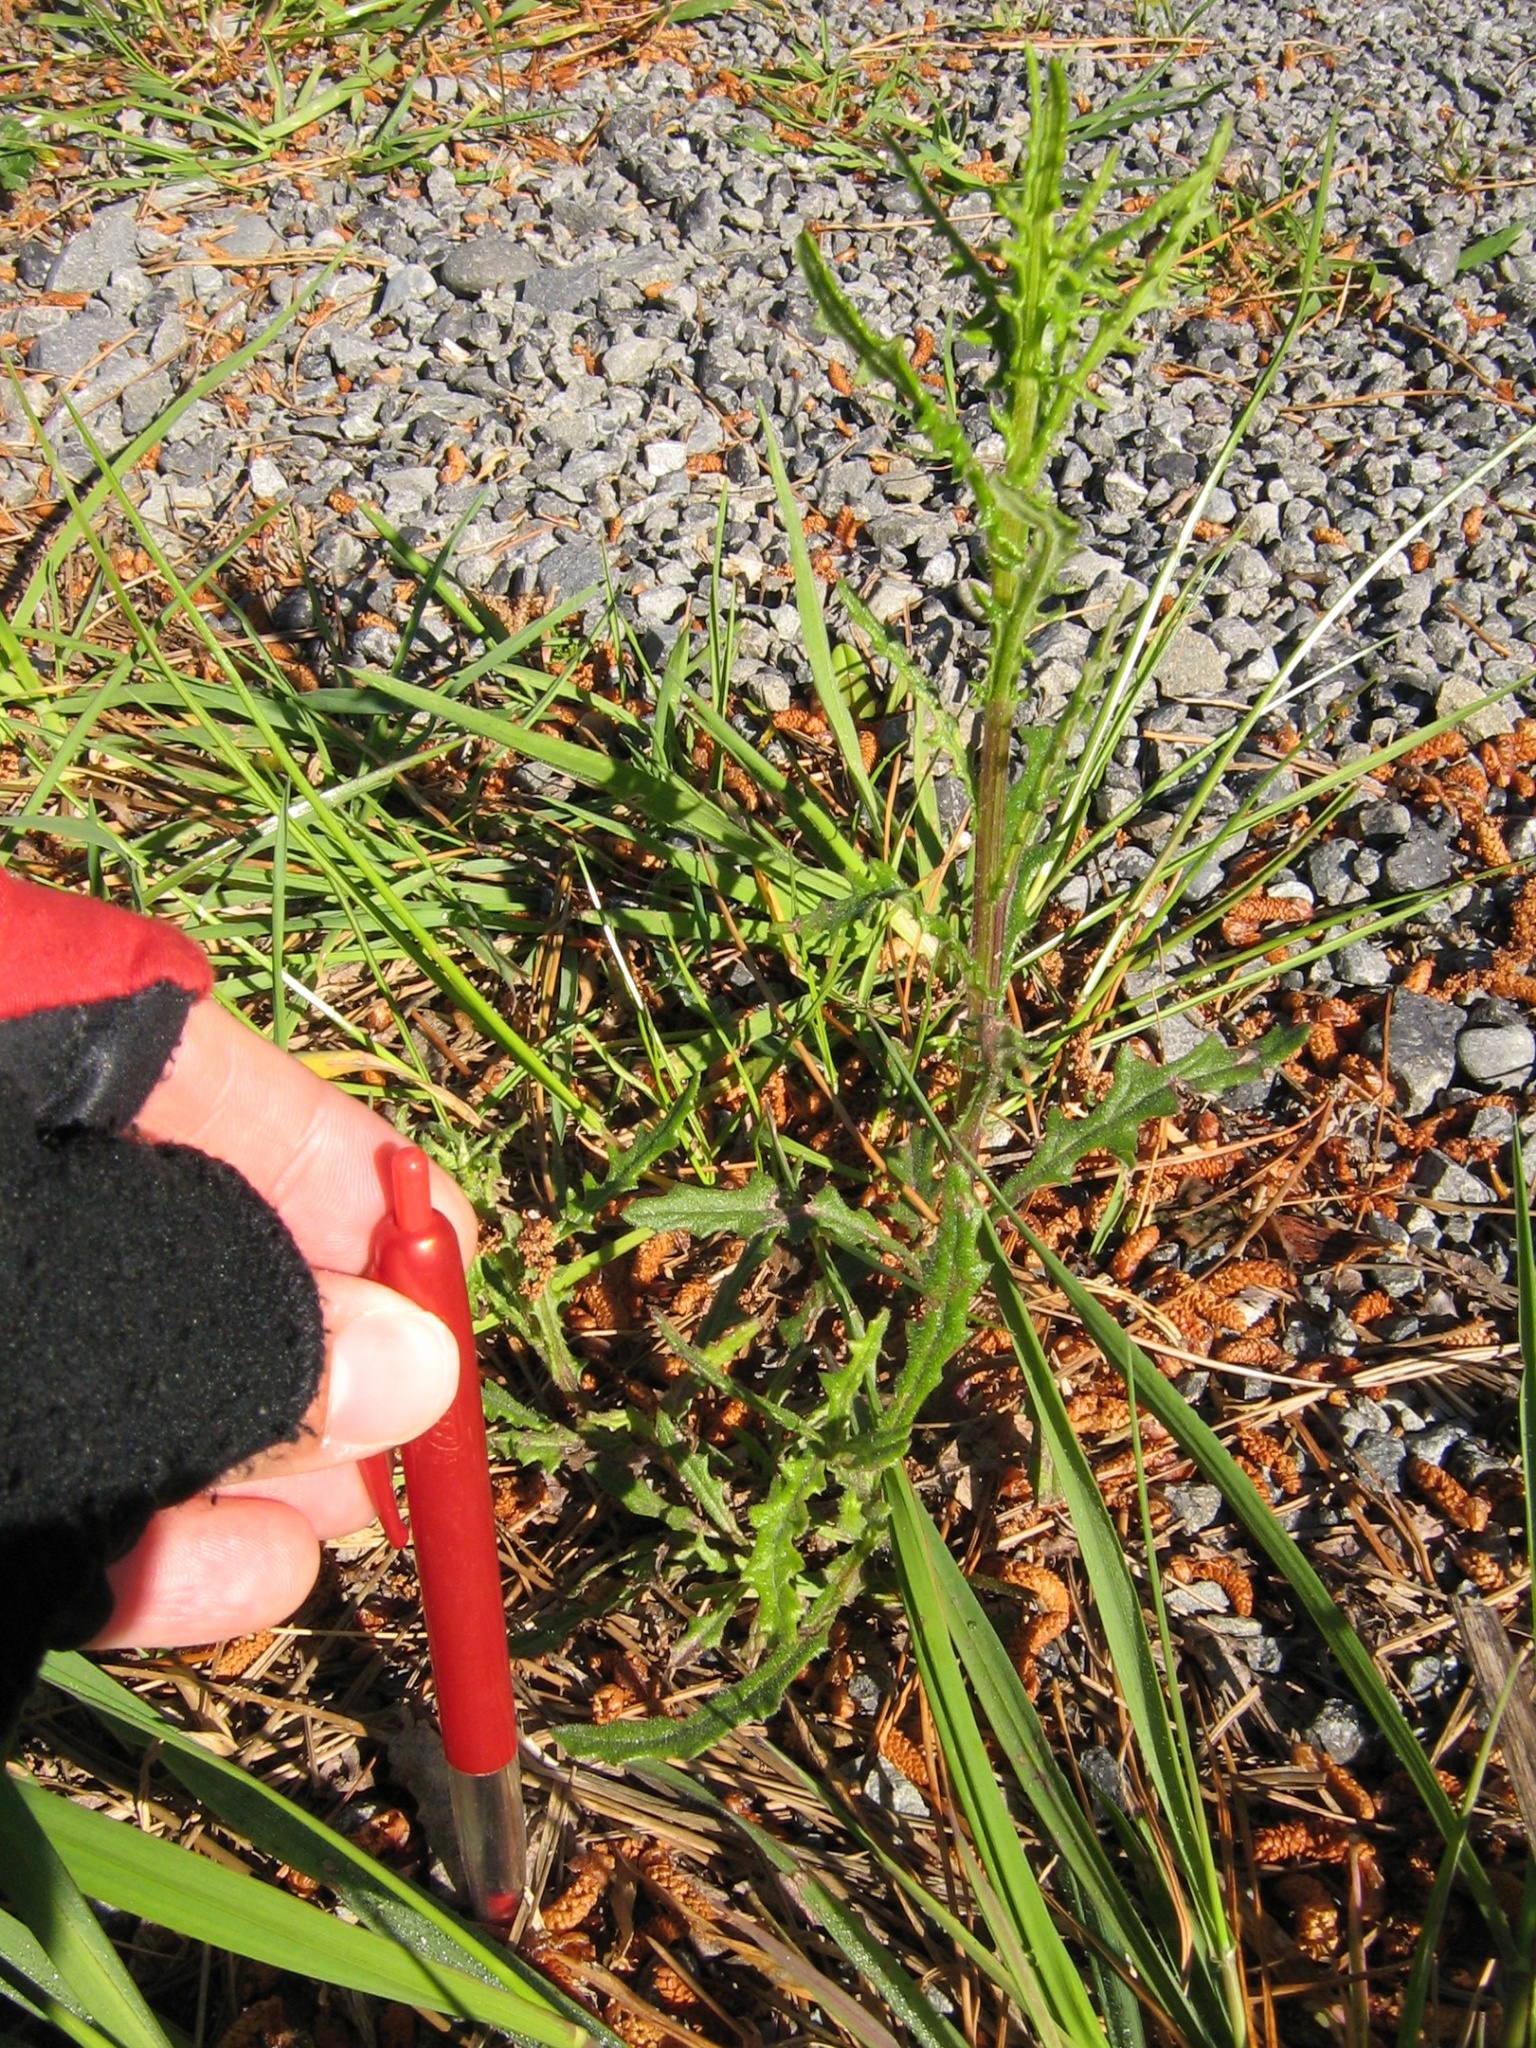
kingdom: Plantae
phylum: Tracheophyta
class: Magnoliopsida
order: Asterales
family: Asteraceae
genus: Senecio
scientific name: Senecio hispidulus
